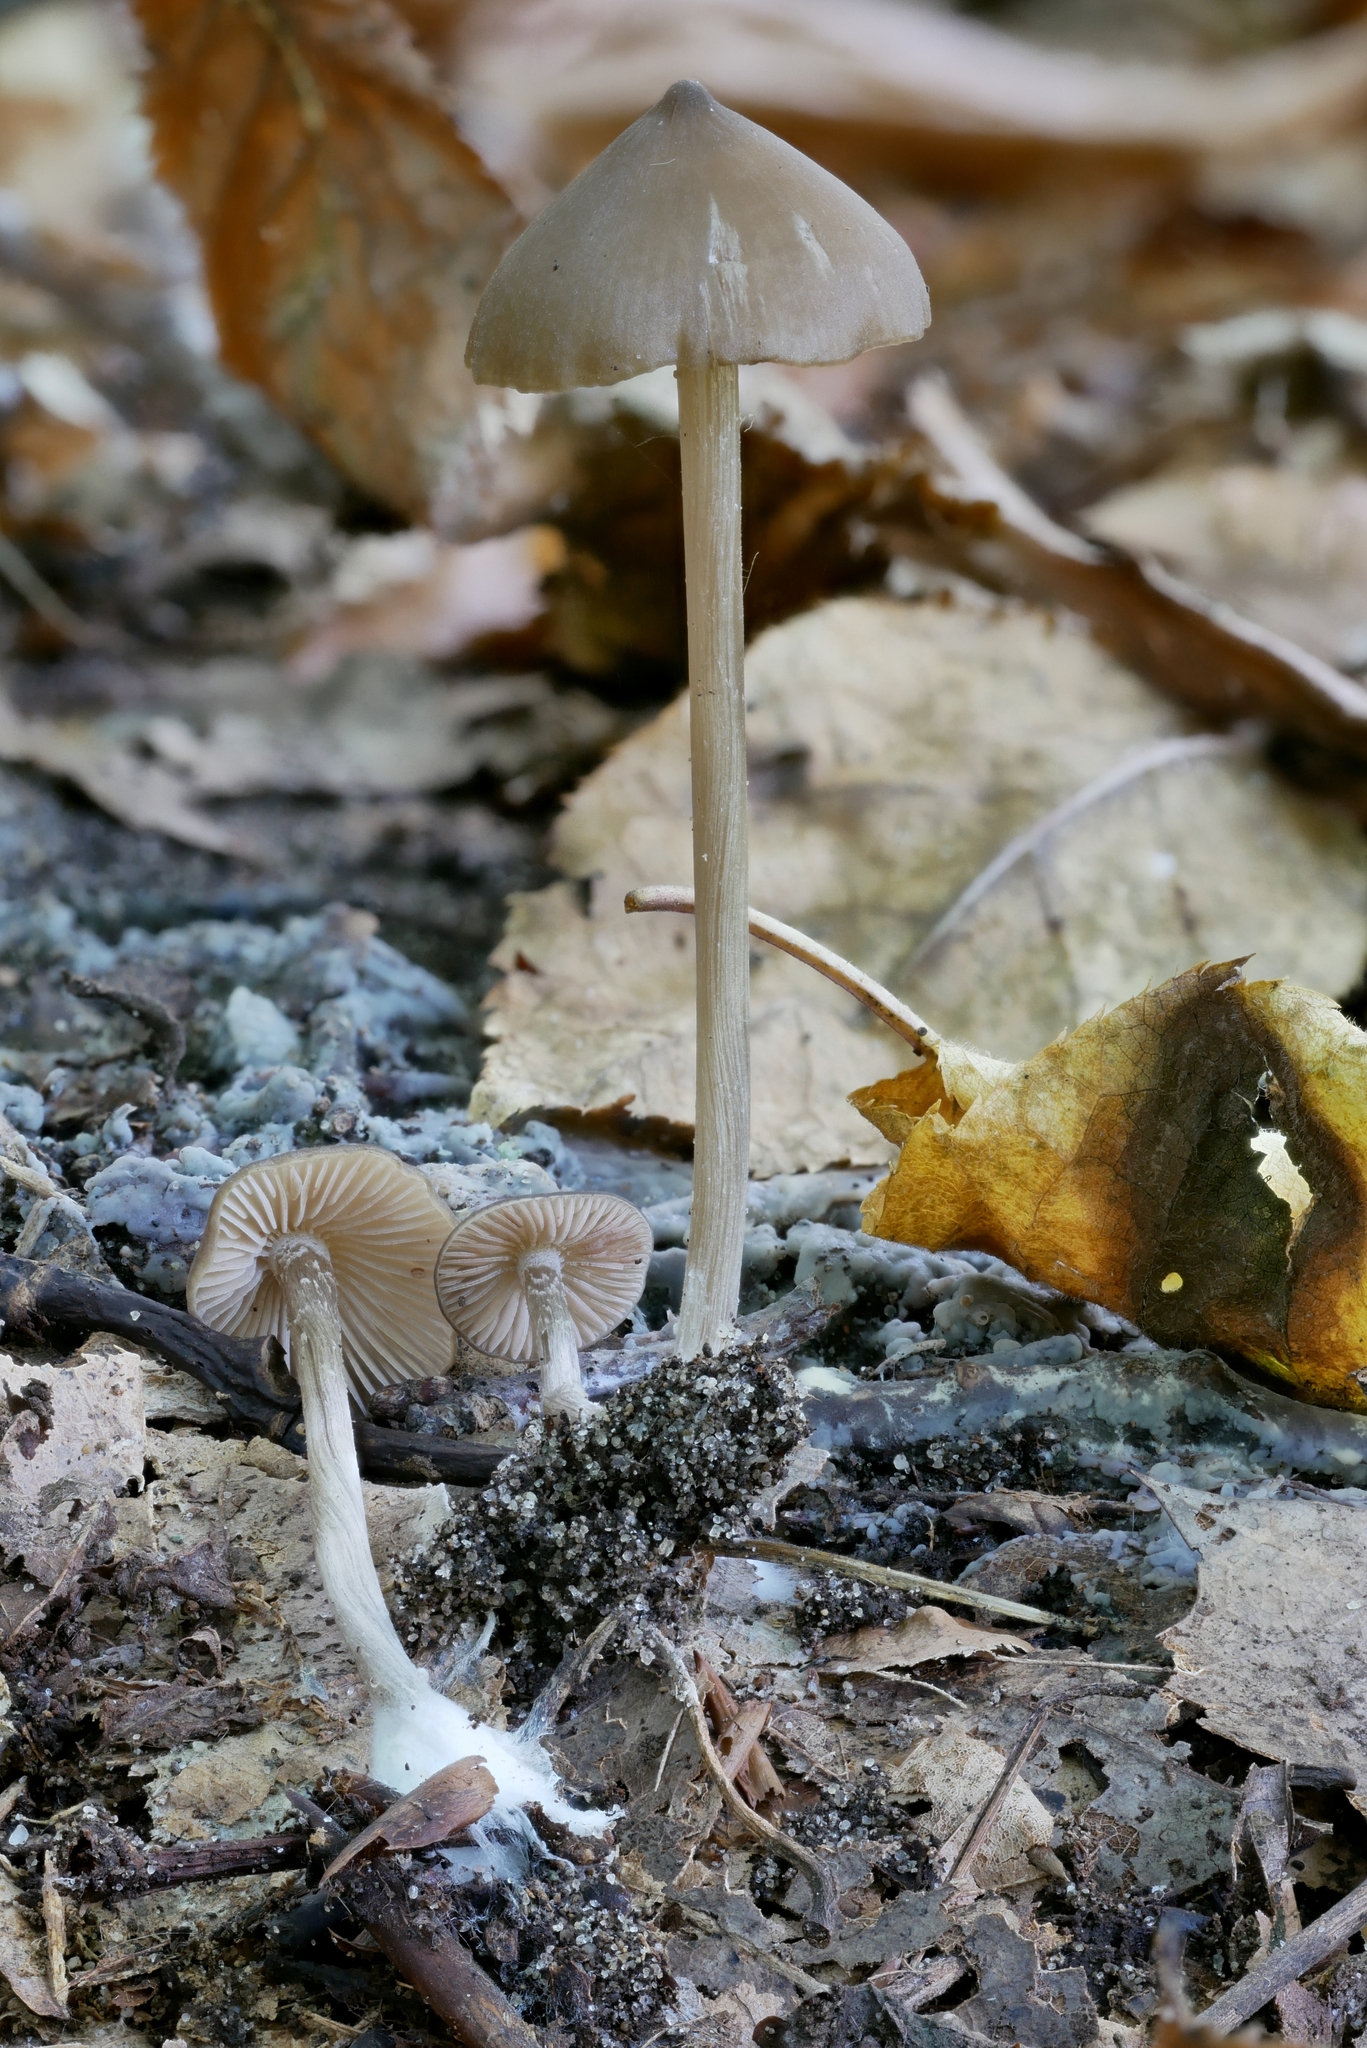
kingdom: Fungi
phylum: Basidiomycota
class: Agaricomycetes
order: Agaricales
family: Entolomataceae
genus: Entoloma
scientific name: Entoloma psammophilohebes
